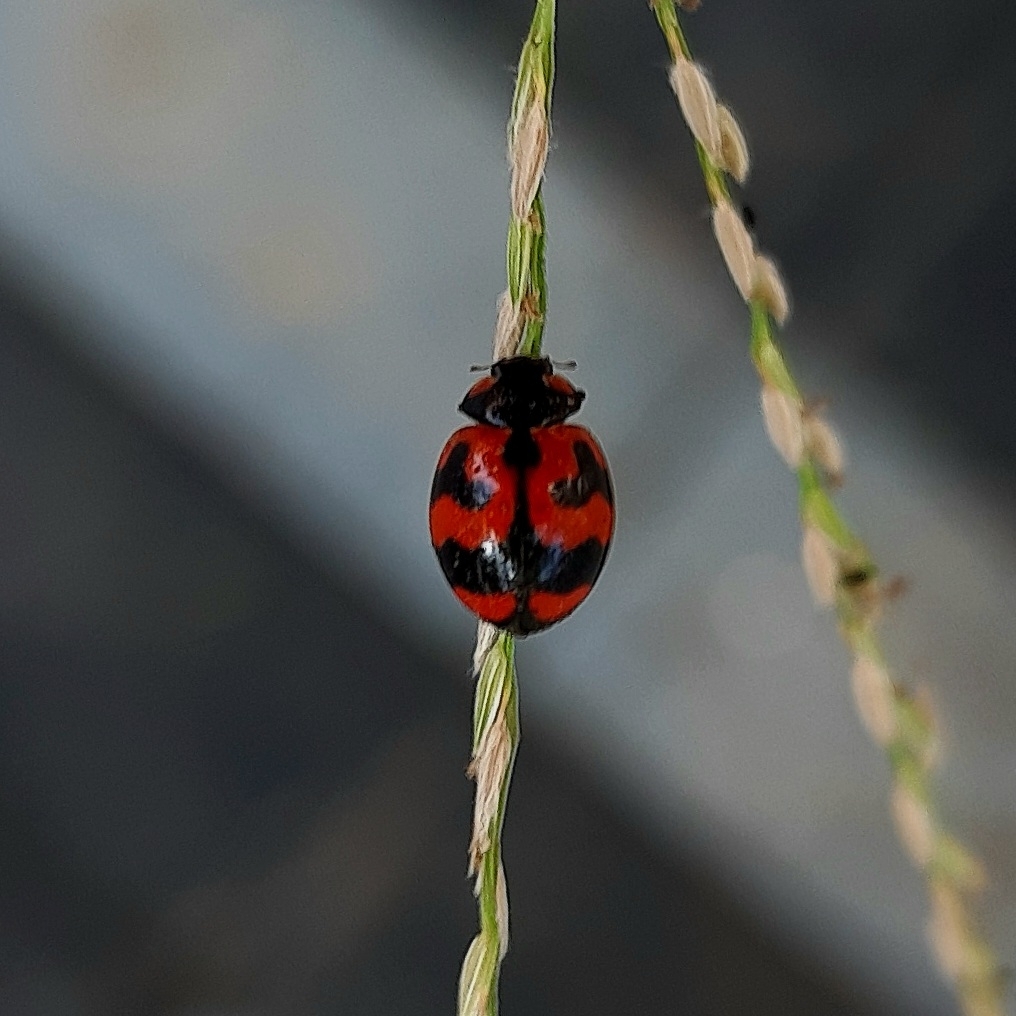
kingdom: Animalia
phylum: Arthropoda
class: Insecta
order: Coleoptera
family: Coccinellidae
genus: Coccinella
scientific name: Coccinella transversalis
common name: Transverse lady beetle
